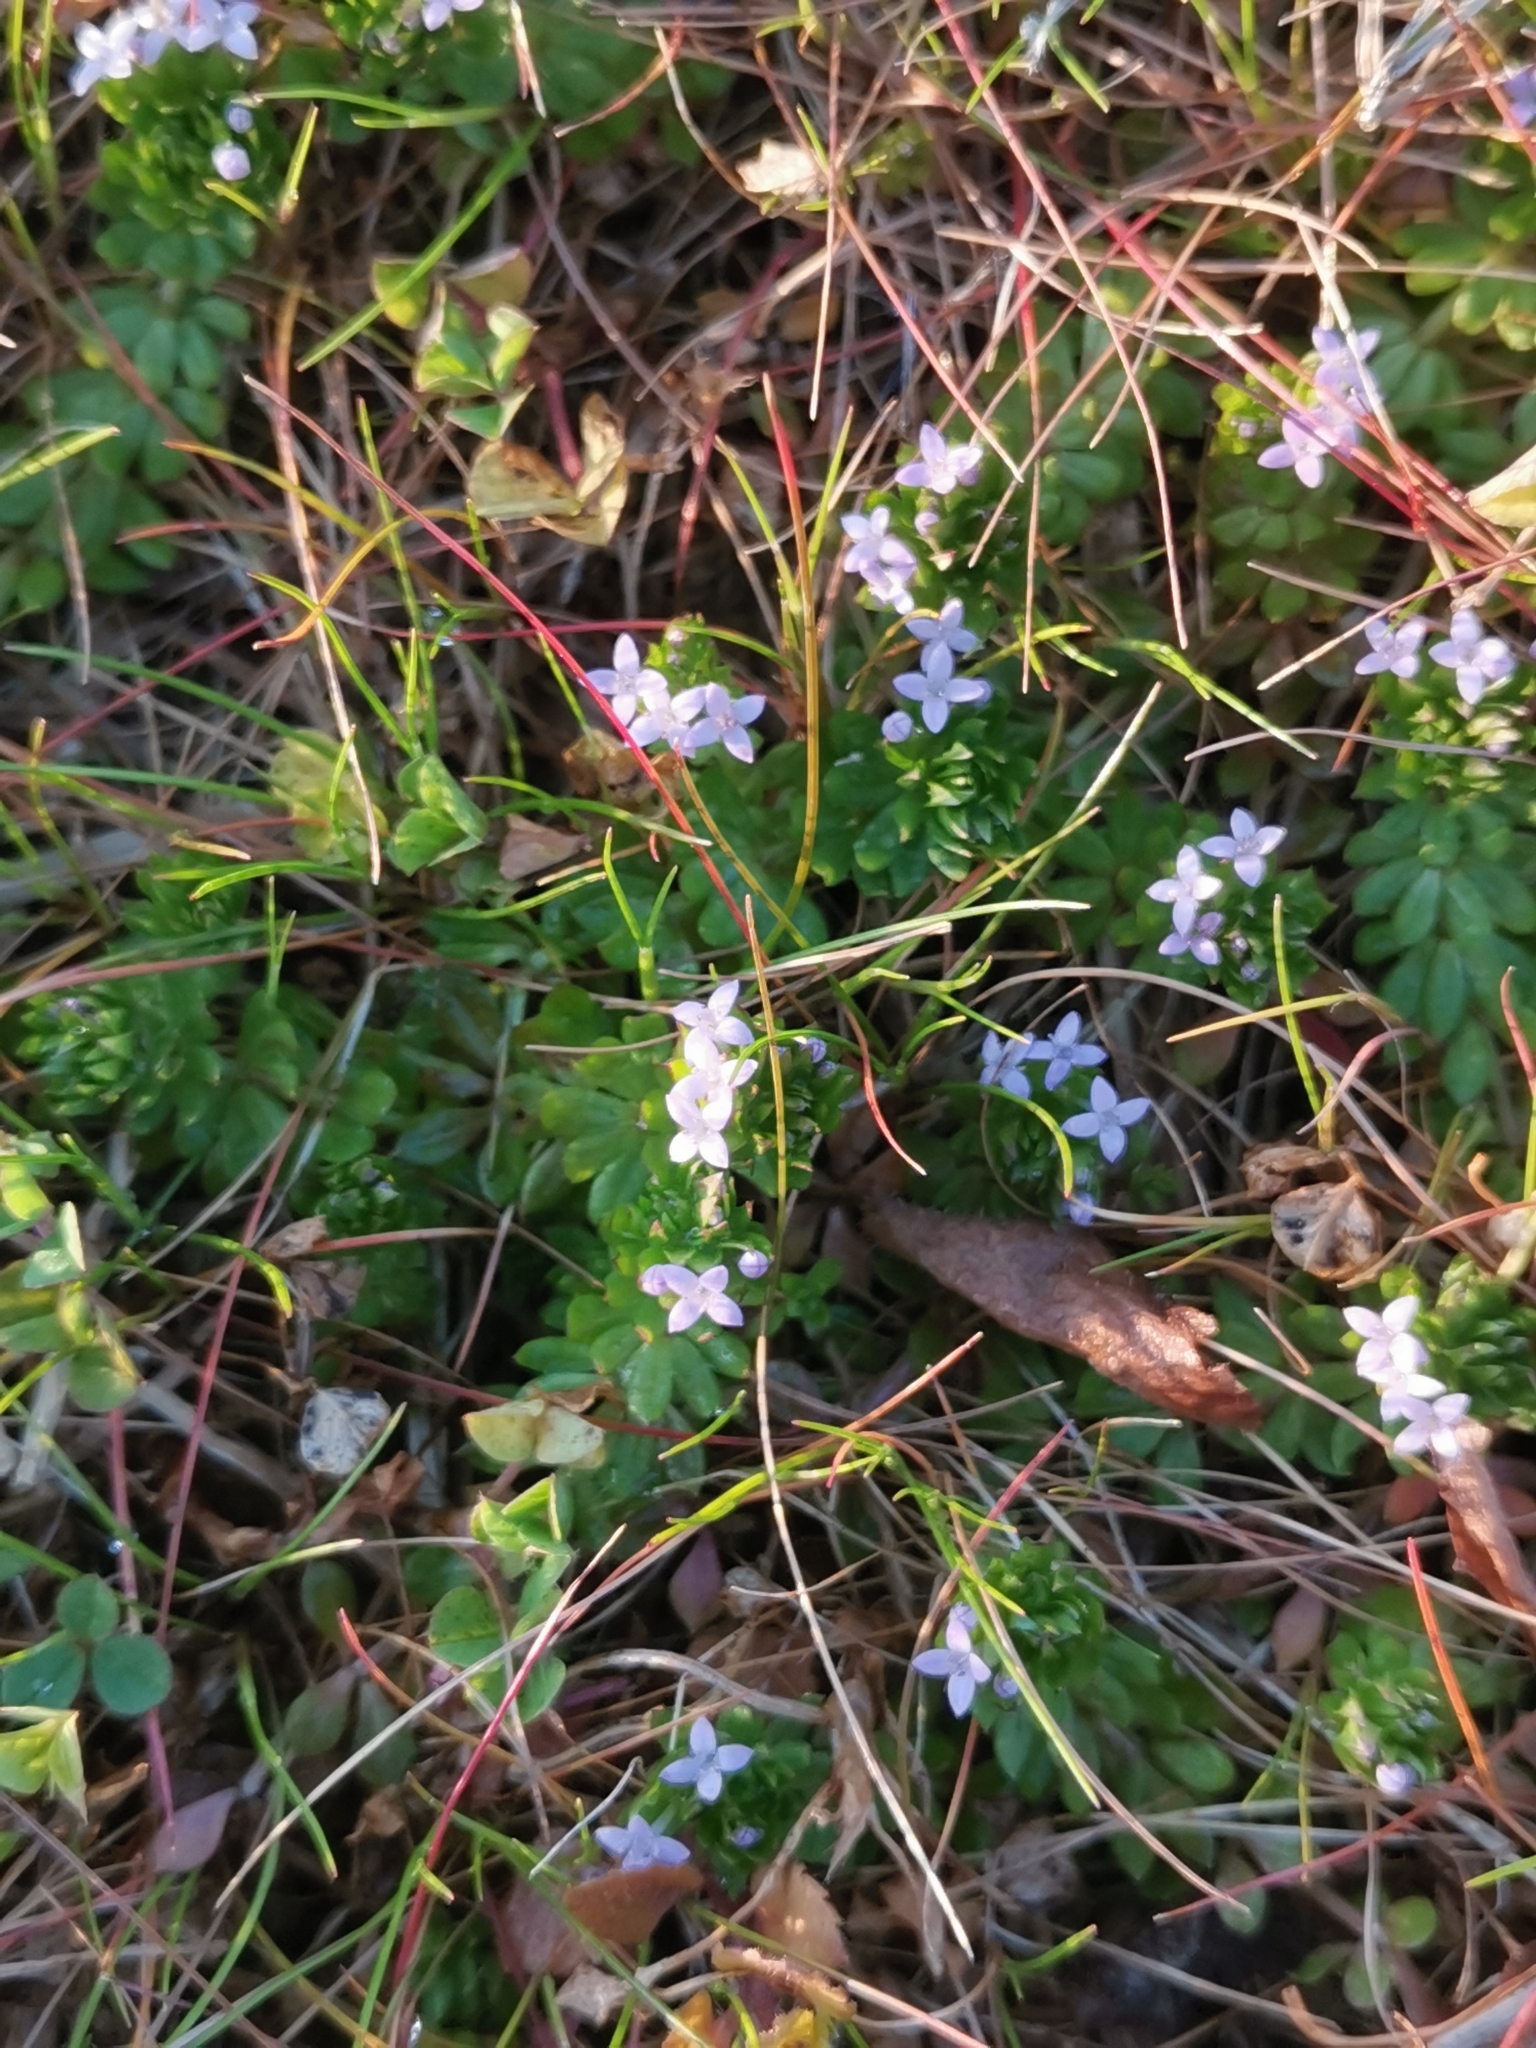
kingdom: Plantae
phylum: Tracheophyta
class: Magnoliopsida
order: Gentianales
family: Rubiaceae
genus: Sherardia
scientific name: Sherardia arvensis
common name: Field madder
